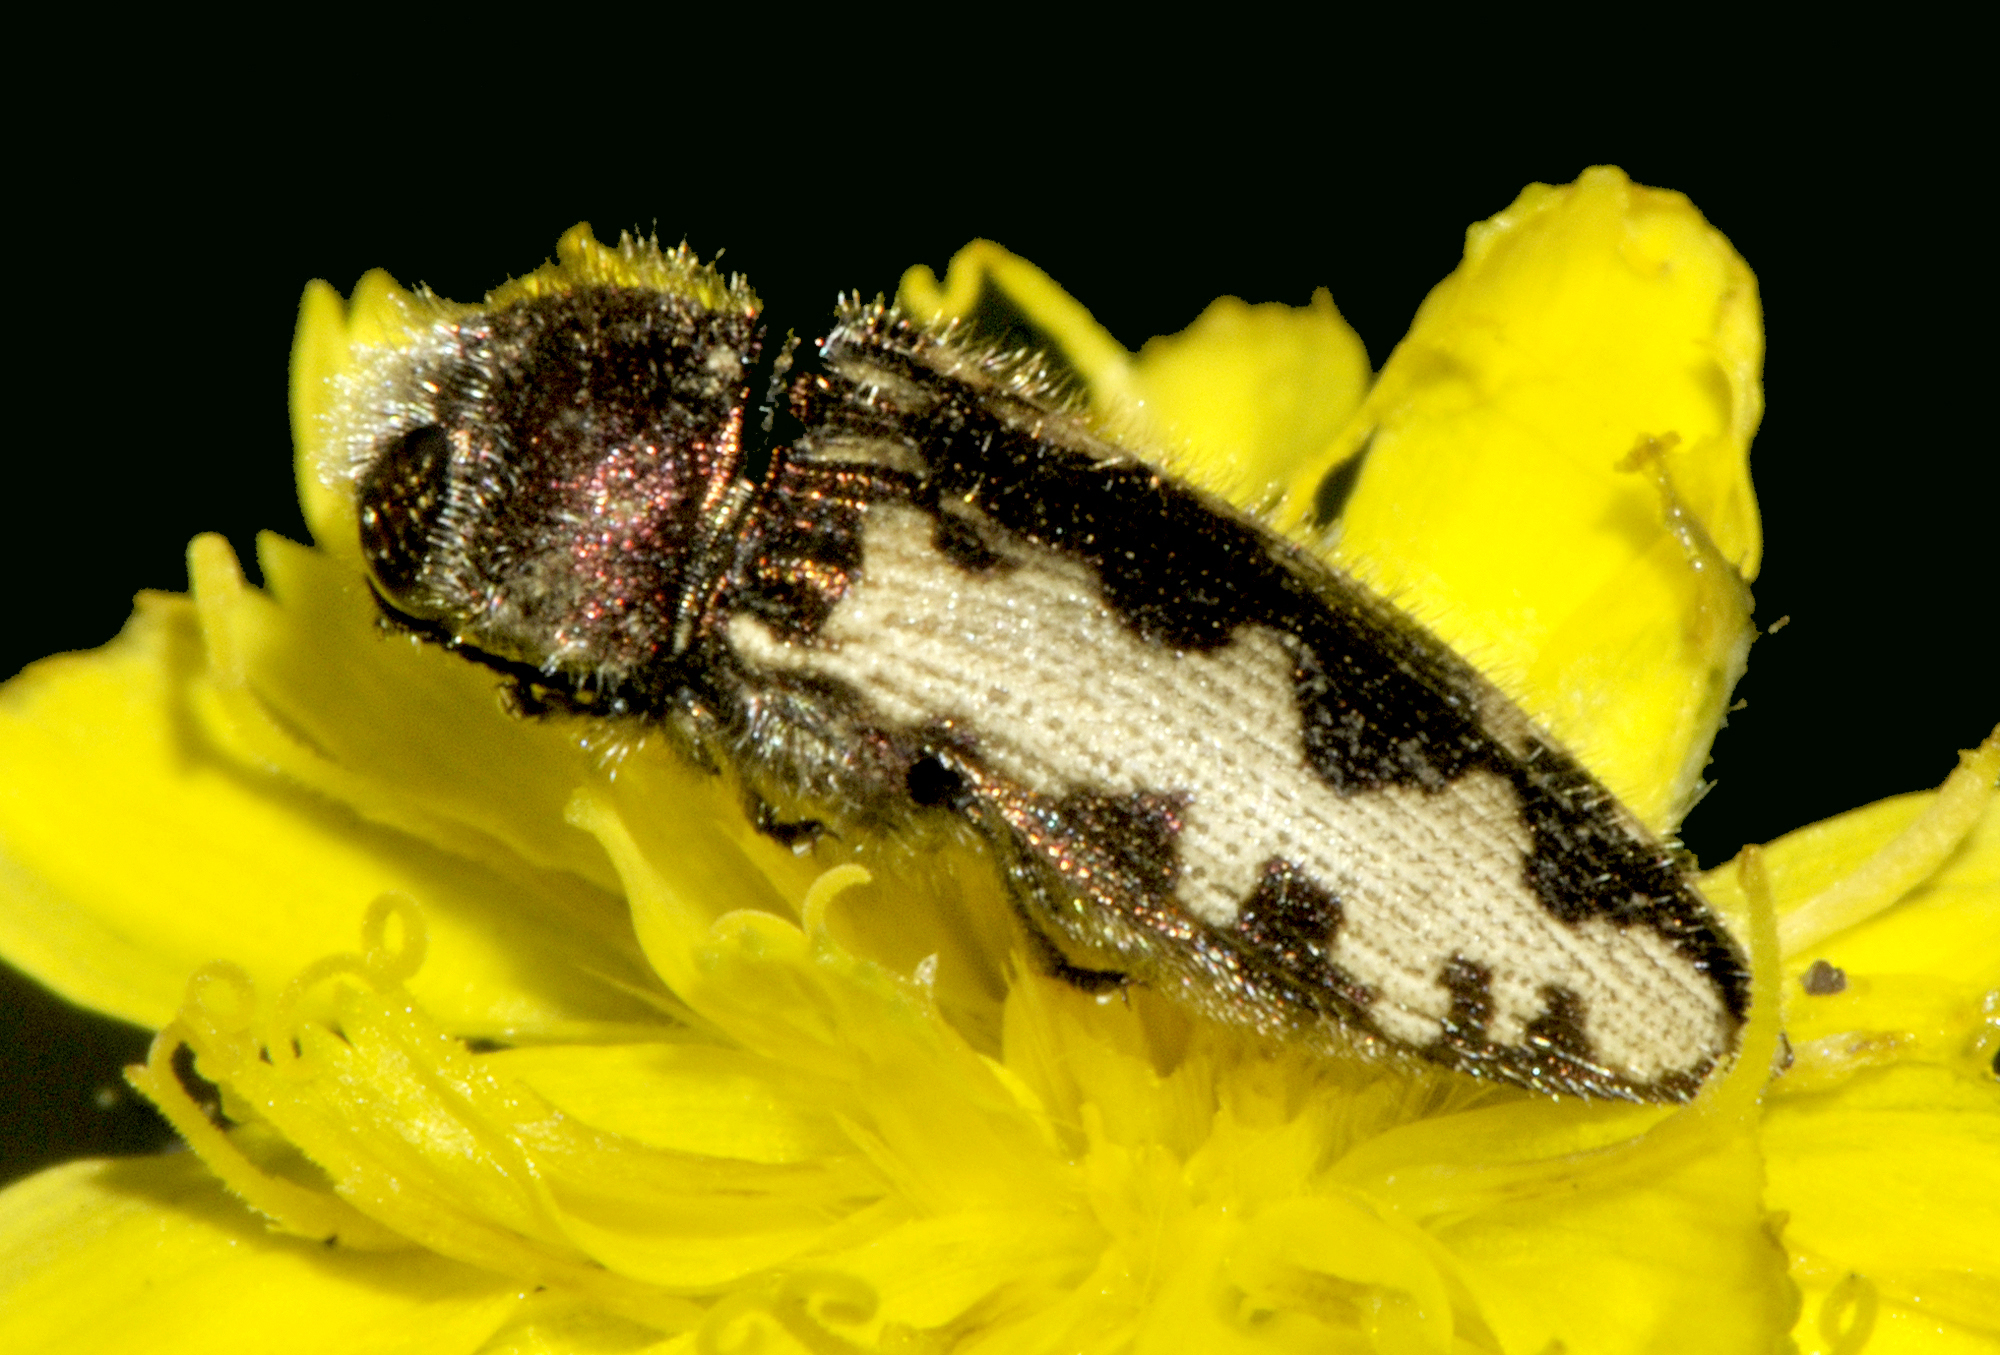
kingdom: Animalia
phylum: Arthropoda
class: Insecta
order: Coleoptera
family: Buprestidae
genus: Acmaeodera
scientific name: Acmaeodera pilosellae
